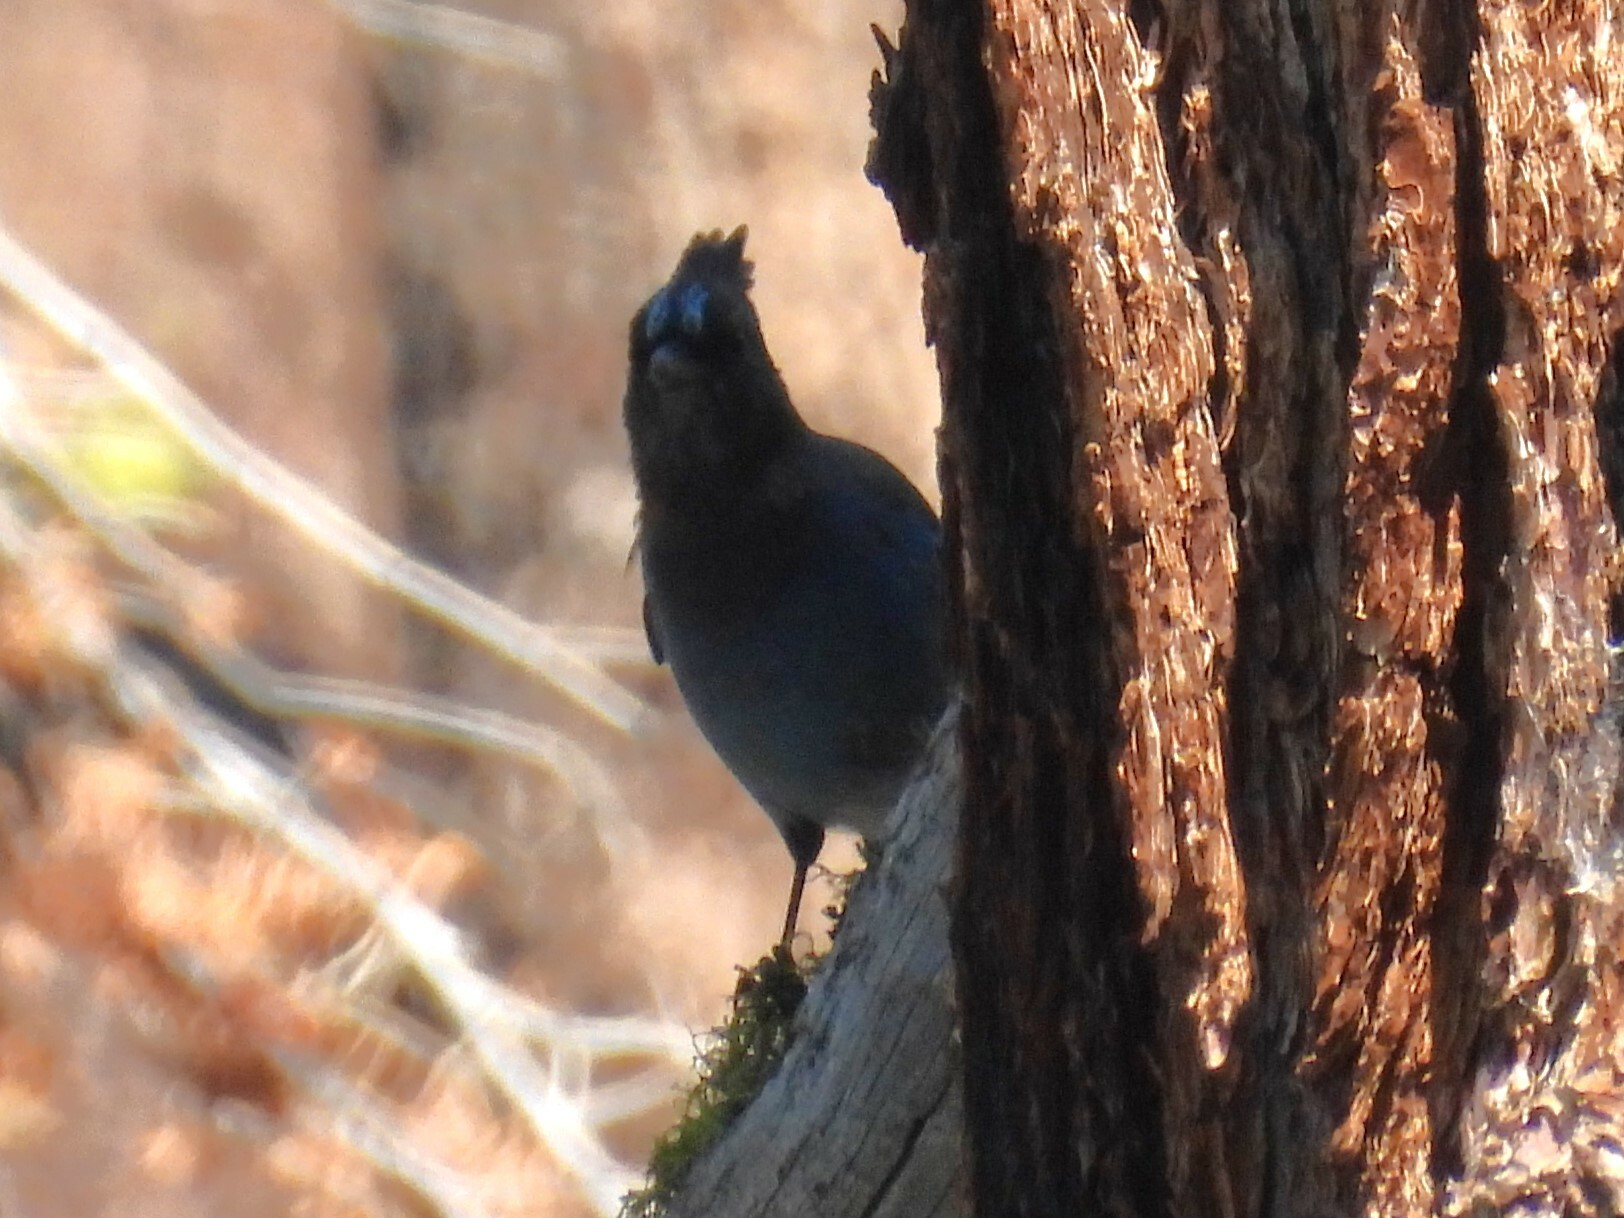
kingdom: Animalia
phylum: Chordata
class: Aves
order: Passeriformes
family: Corvidae
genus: Cyanocitta
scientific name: Cyanocitta stelleri
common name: Steller's jay
